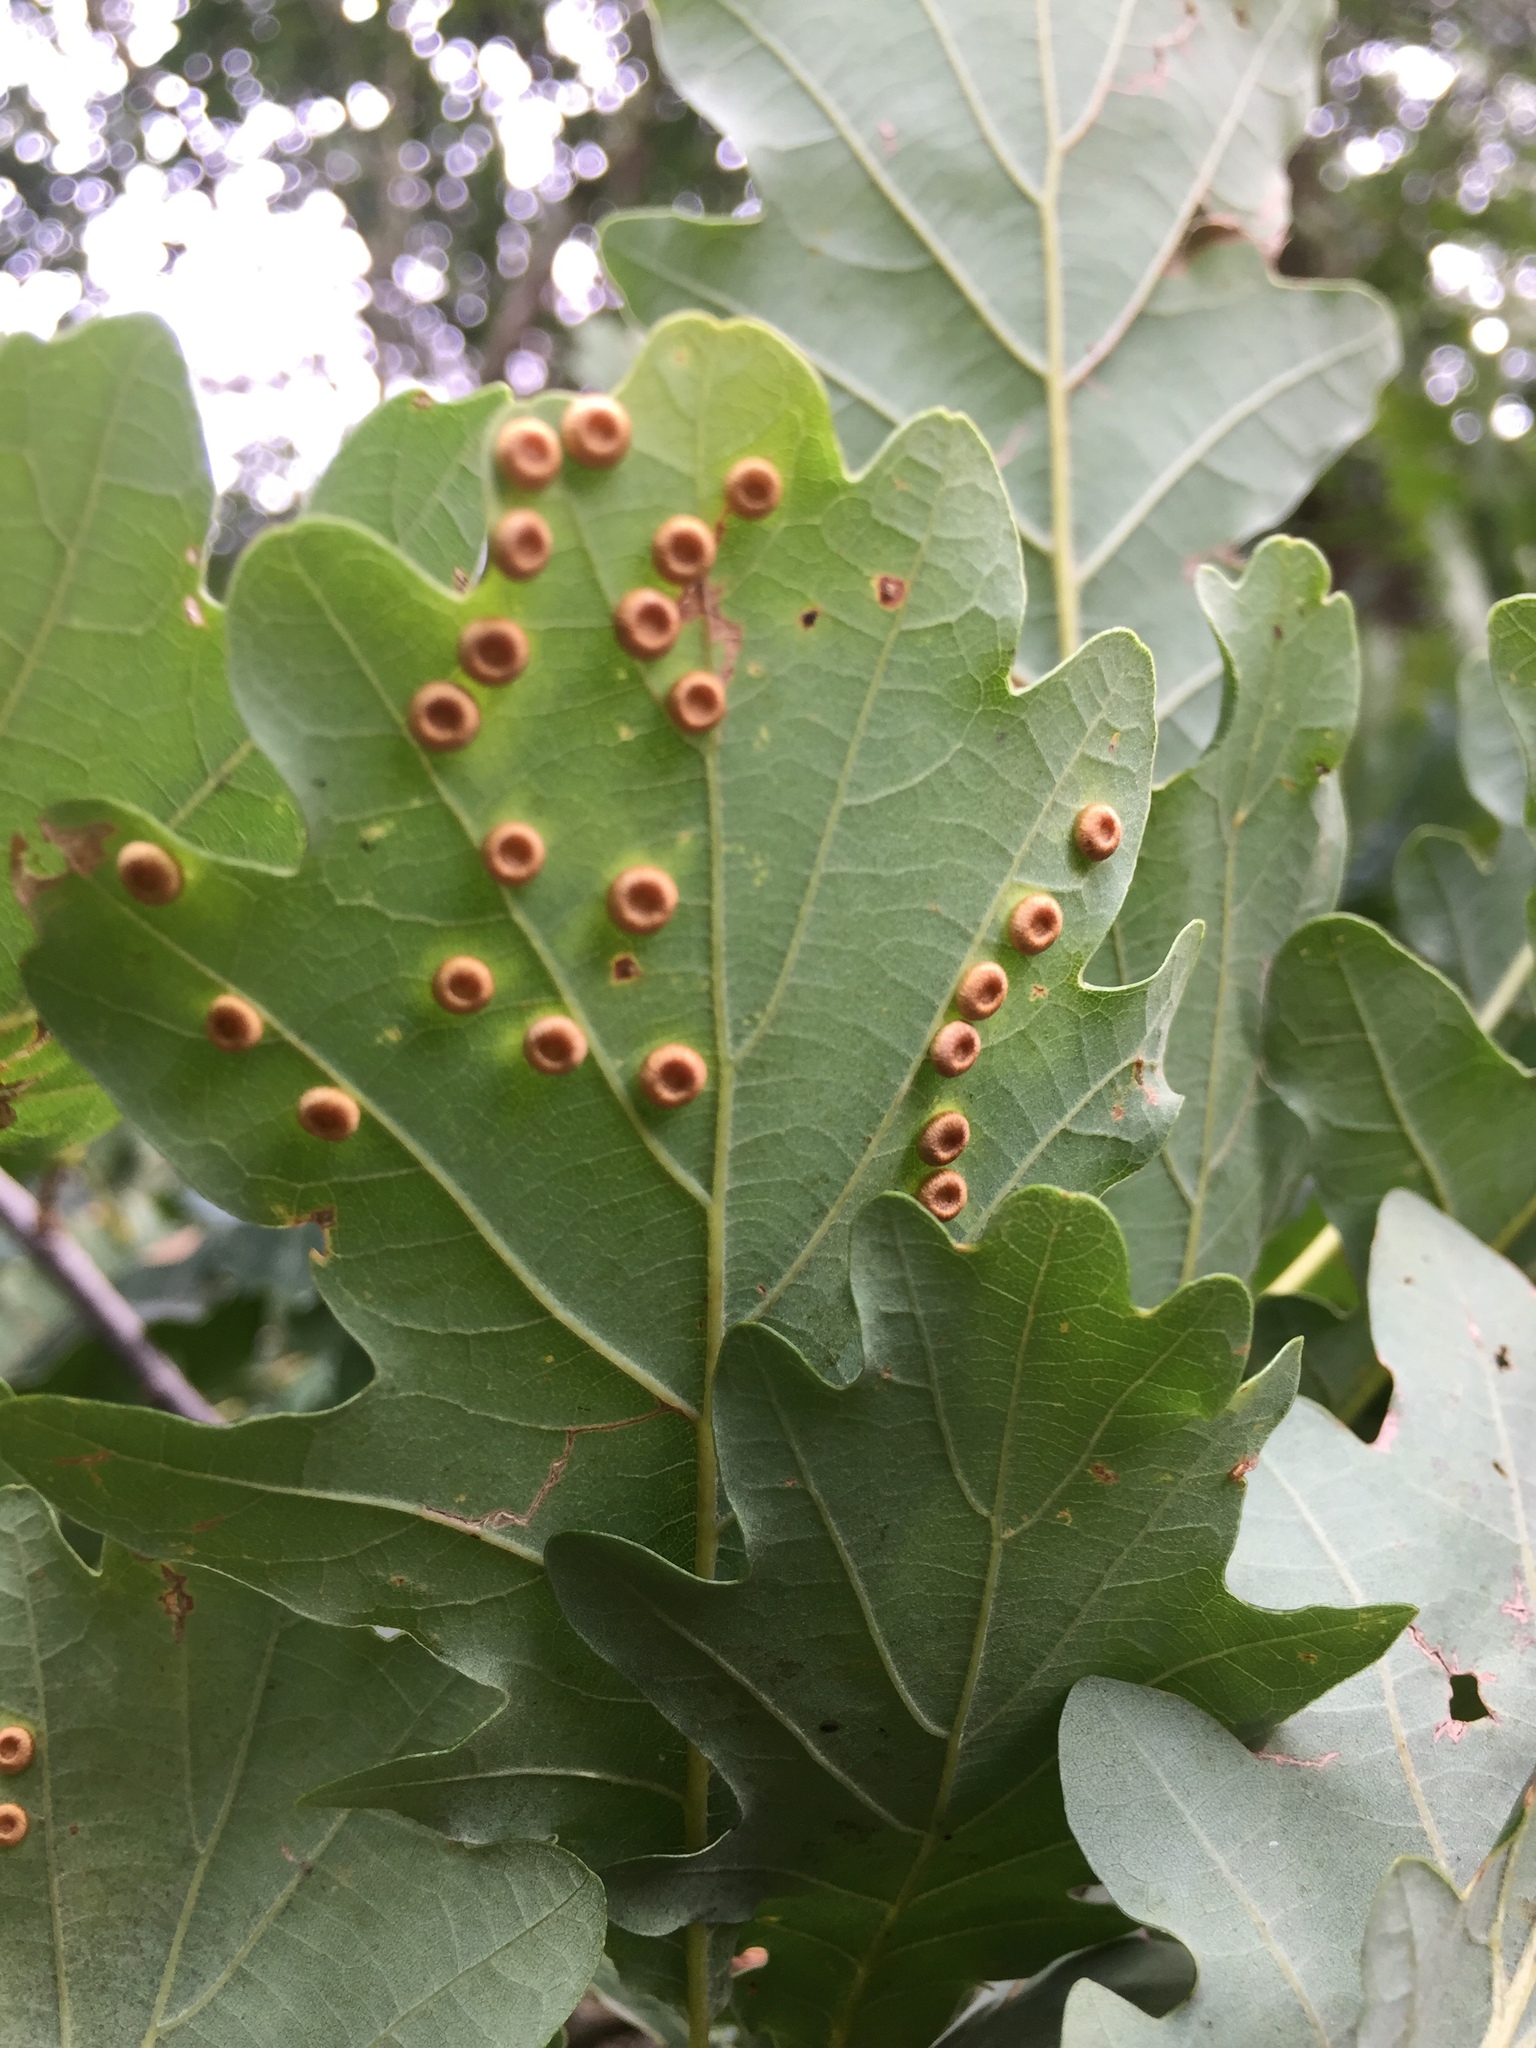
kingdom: Animalia
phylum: Arthropoda
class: Insecta
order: Hymenoptera
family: Cynipidae
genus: Neuroterus
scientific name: Neuroterus numismalis
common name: Silk-button spangle gall
